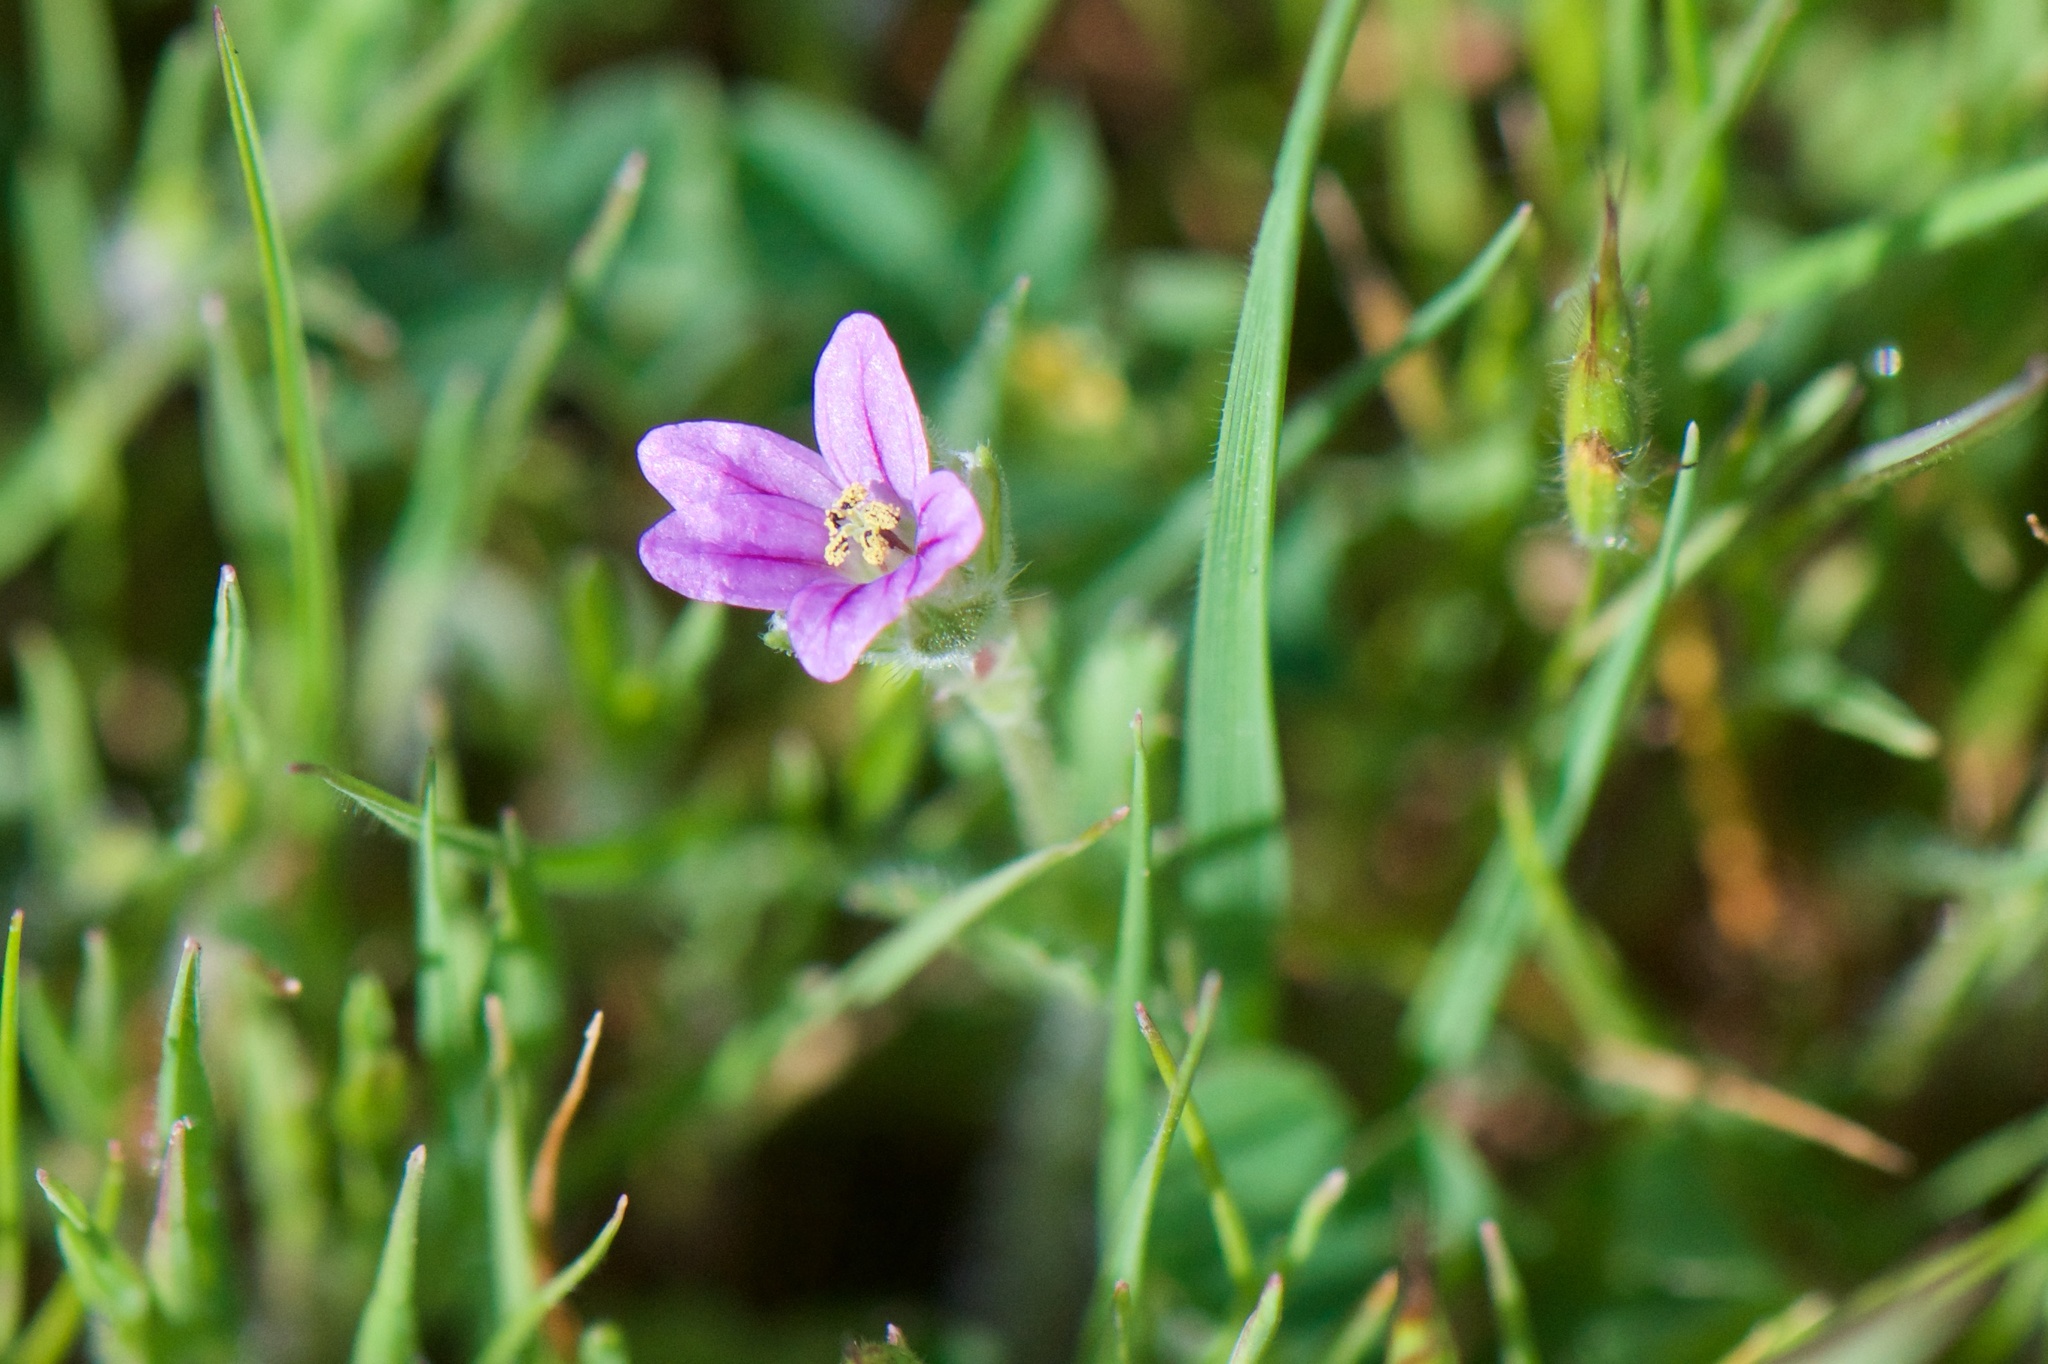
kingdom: Plantae
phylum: Tracheophyta
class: Magnoliopsida
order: Geraniales
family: Geraniaceae
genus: Erodium
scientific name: Erodium brachycarpum
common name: Hairy-pitted stork's-bill
